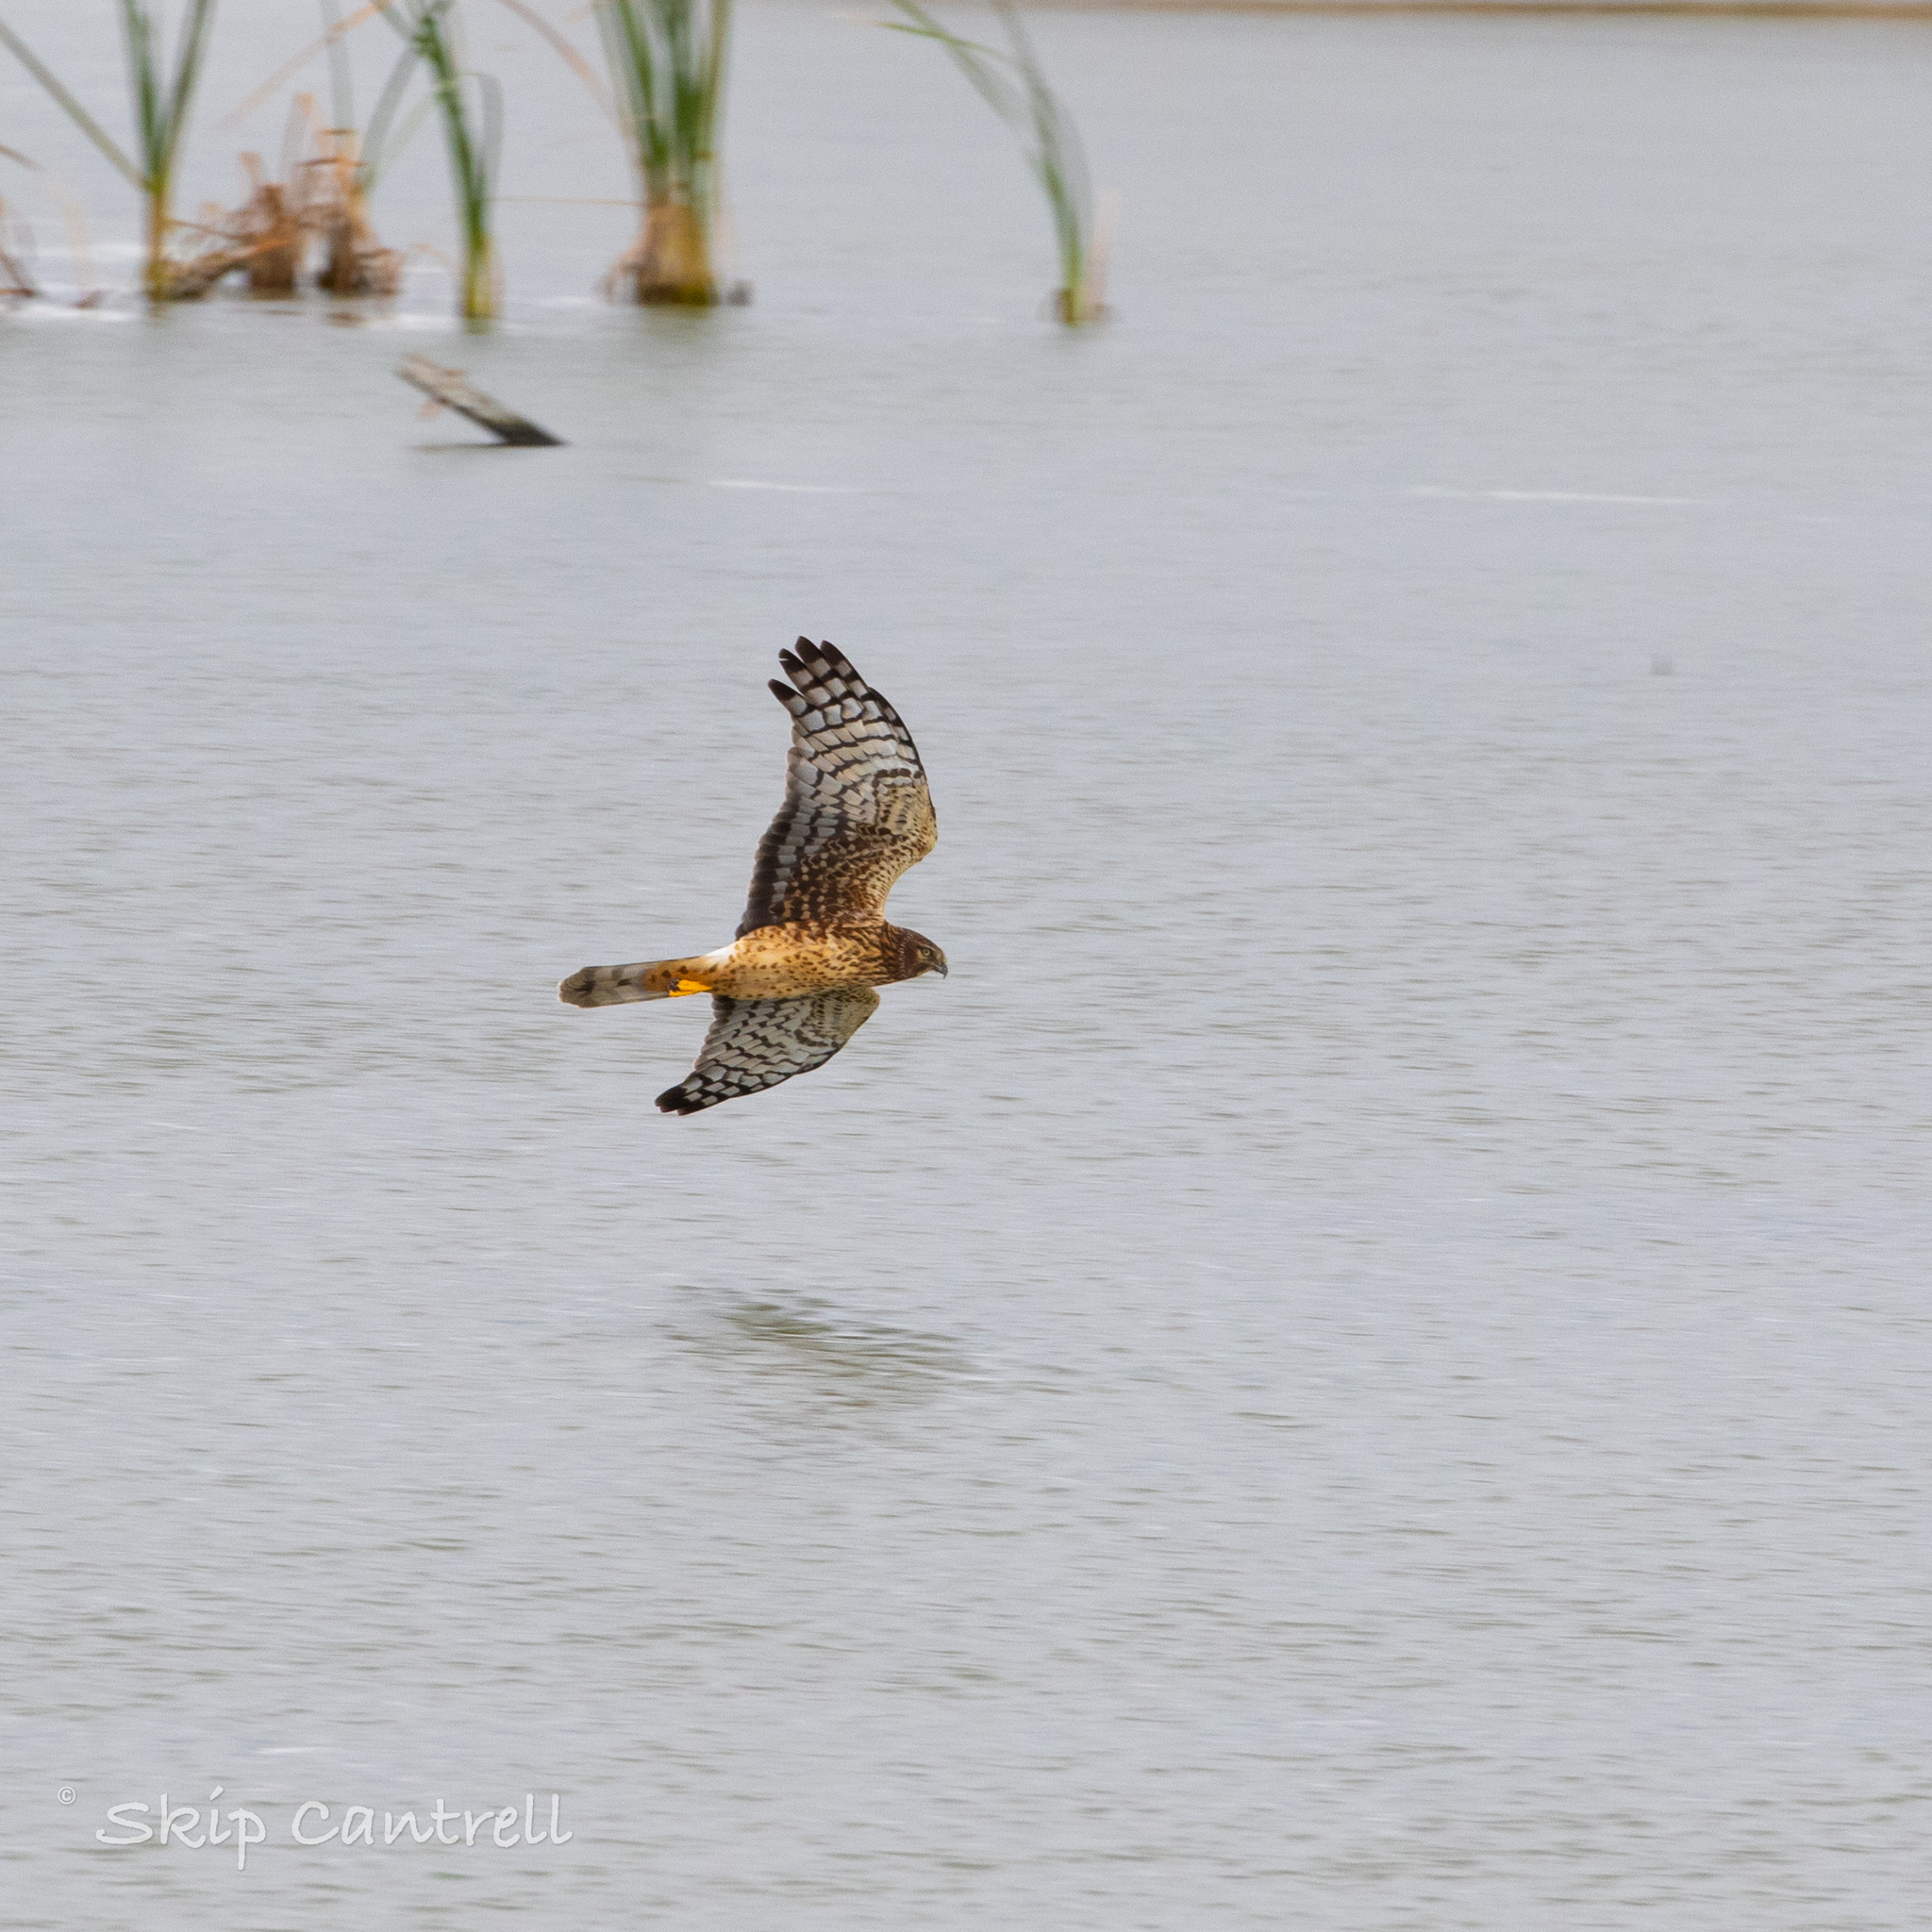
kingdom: Animalia
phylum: Chordata
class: Aves
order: Accipitriformes
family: Accipitridae
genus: Circus
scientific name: Circus cyaneus
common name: Hen harrier
